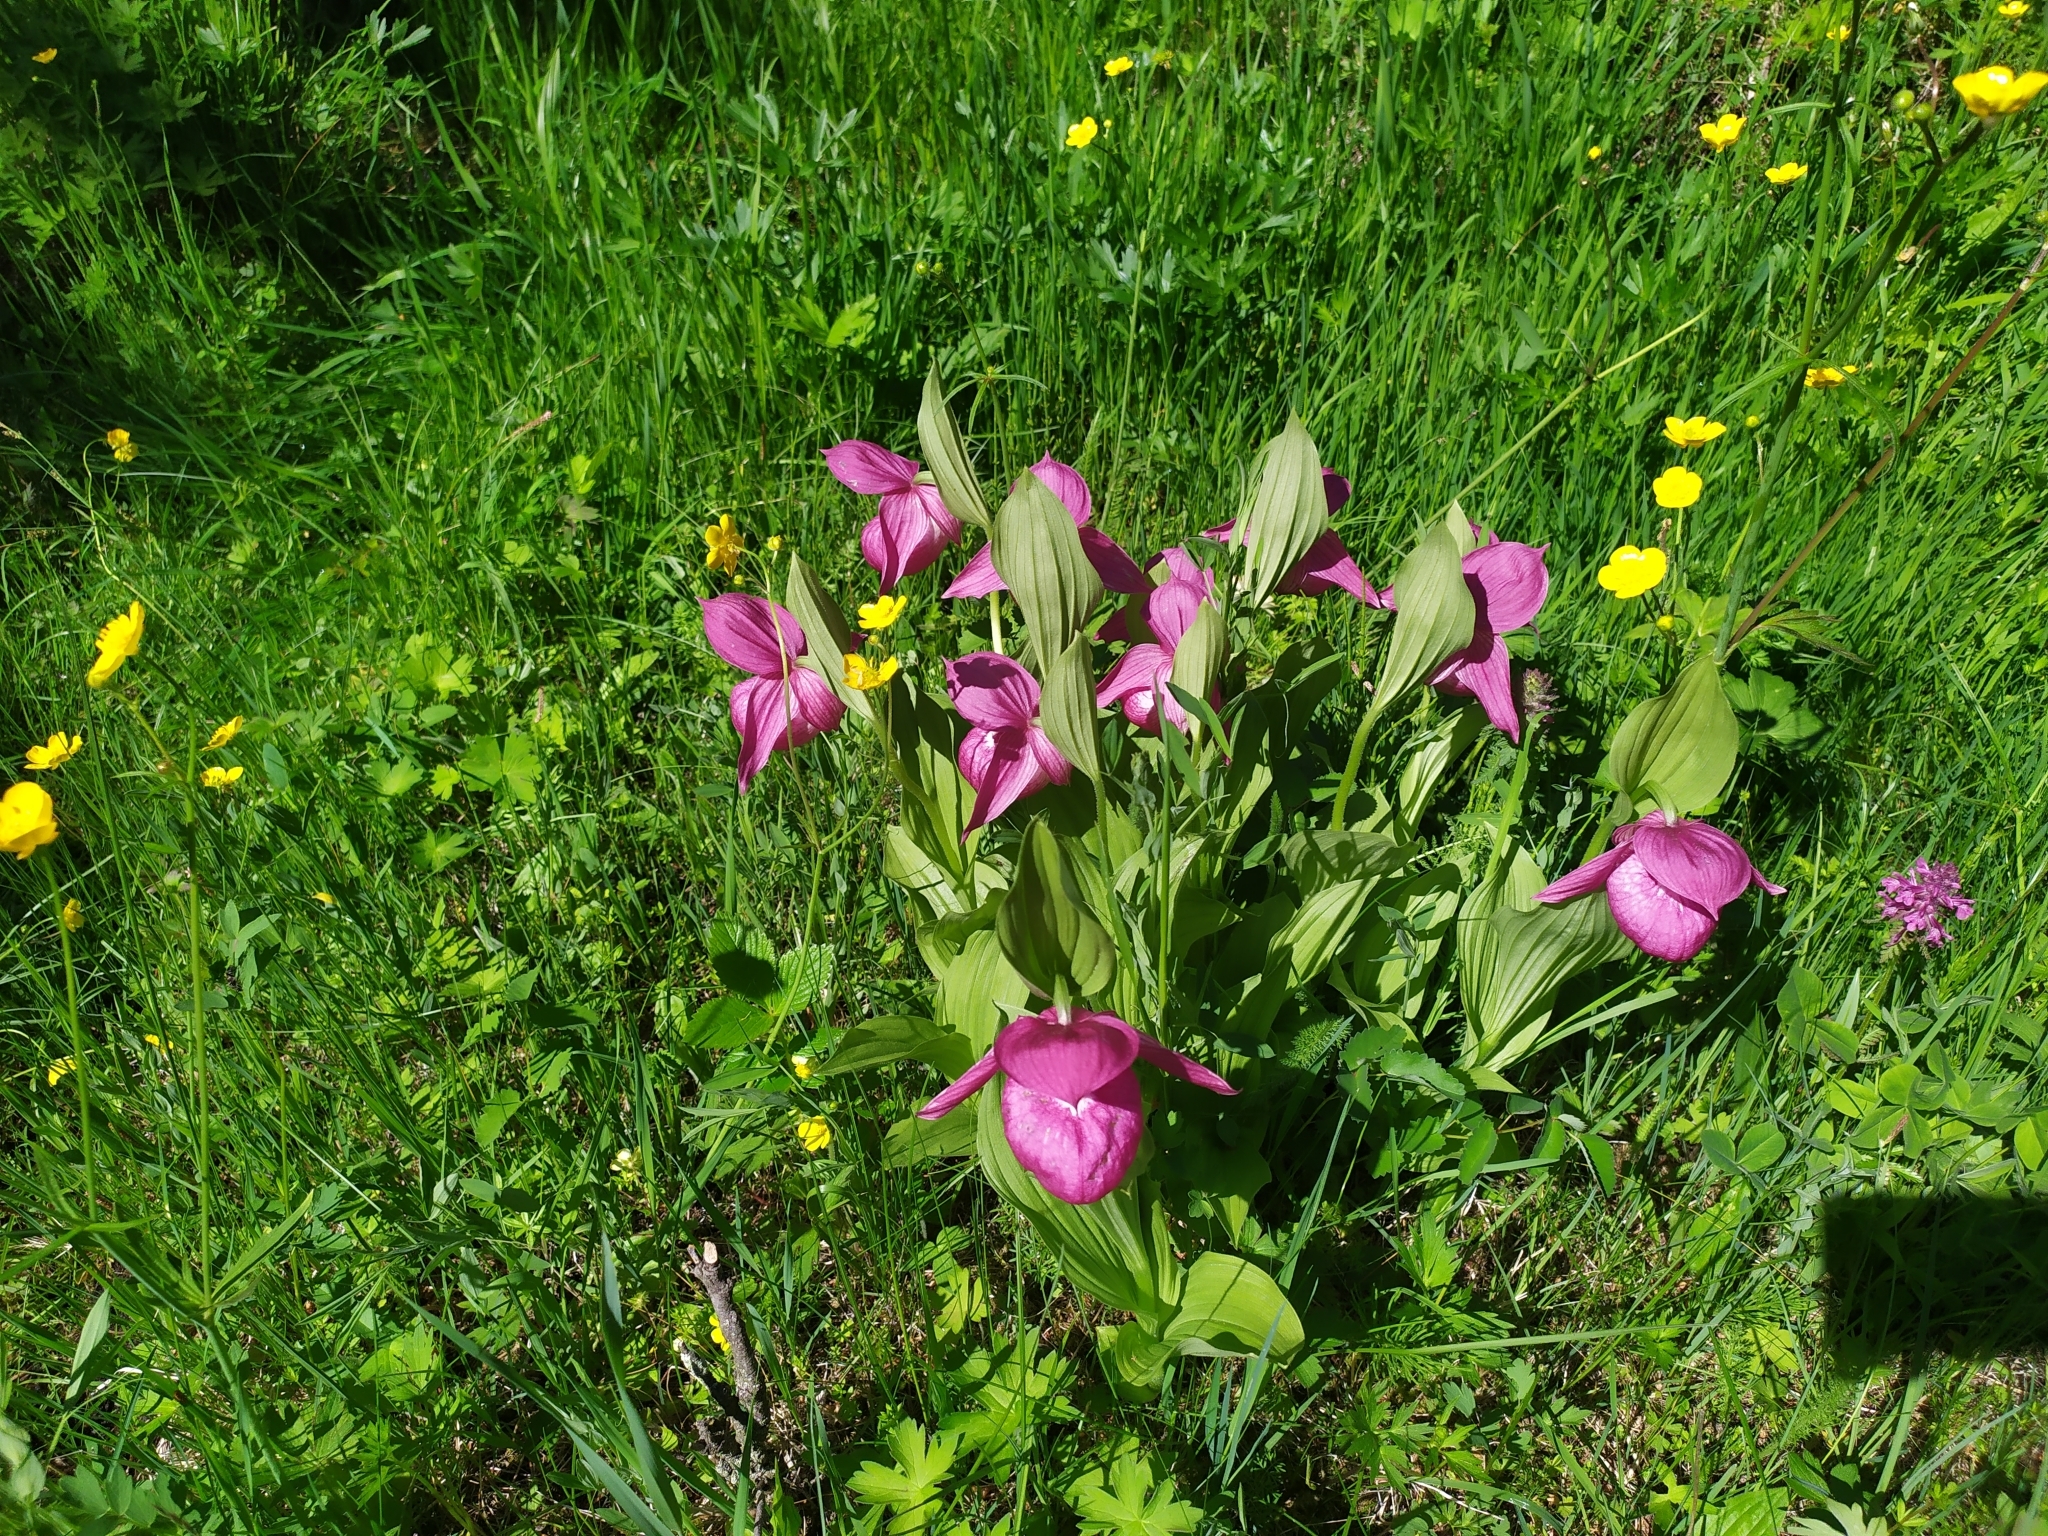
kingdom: Plantae
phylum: Tracheophyta
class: Liliopsida
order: Asparagales
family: Orchidaceae
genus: Cypripedium
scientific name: Cypripedium macranthos
